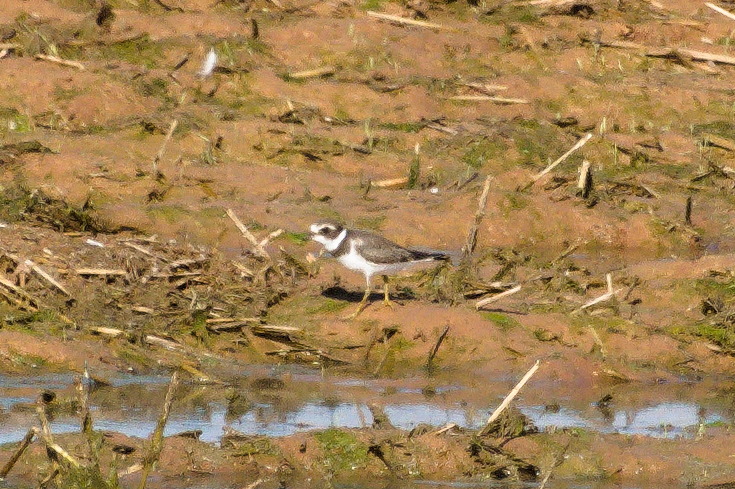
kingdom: Animalia
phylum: Chordata
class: Aves
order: Charadriiformes
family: Charadriidae
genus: Charadrius
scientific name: Charadrius semipalmatus
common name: Semipalmated plover
